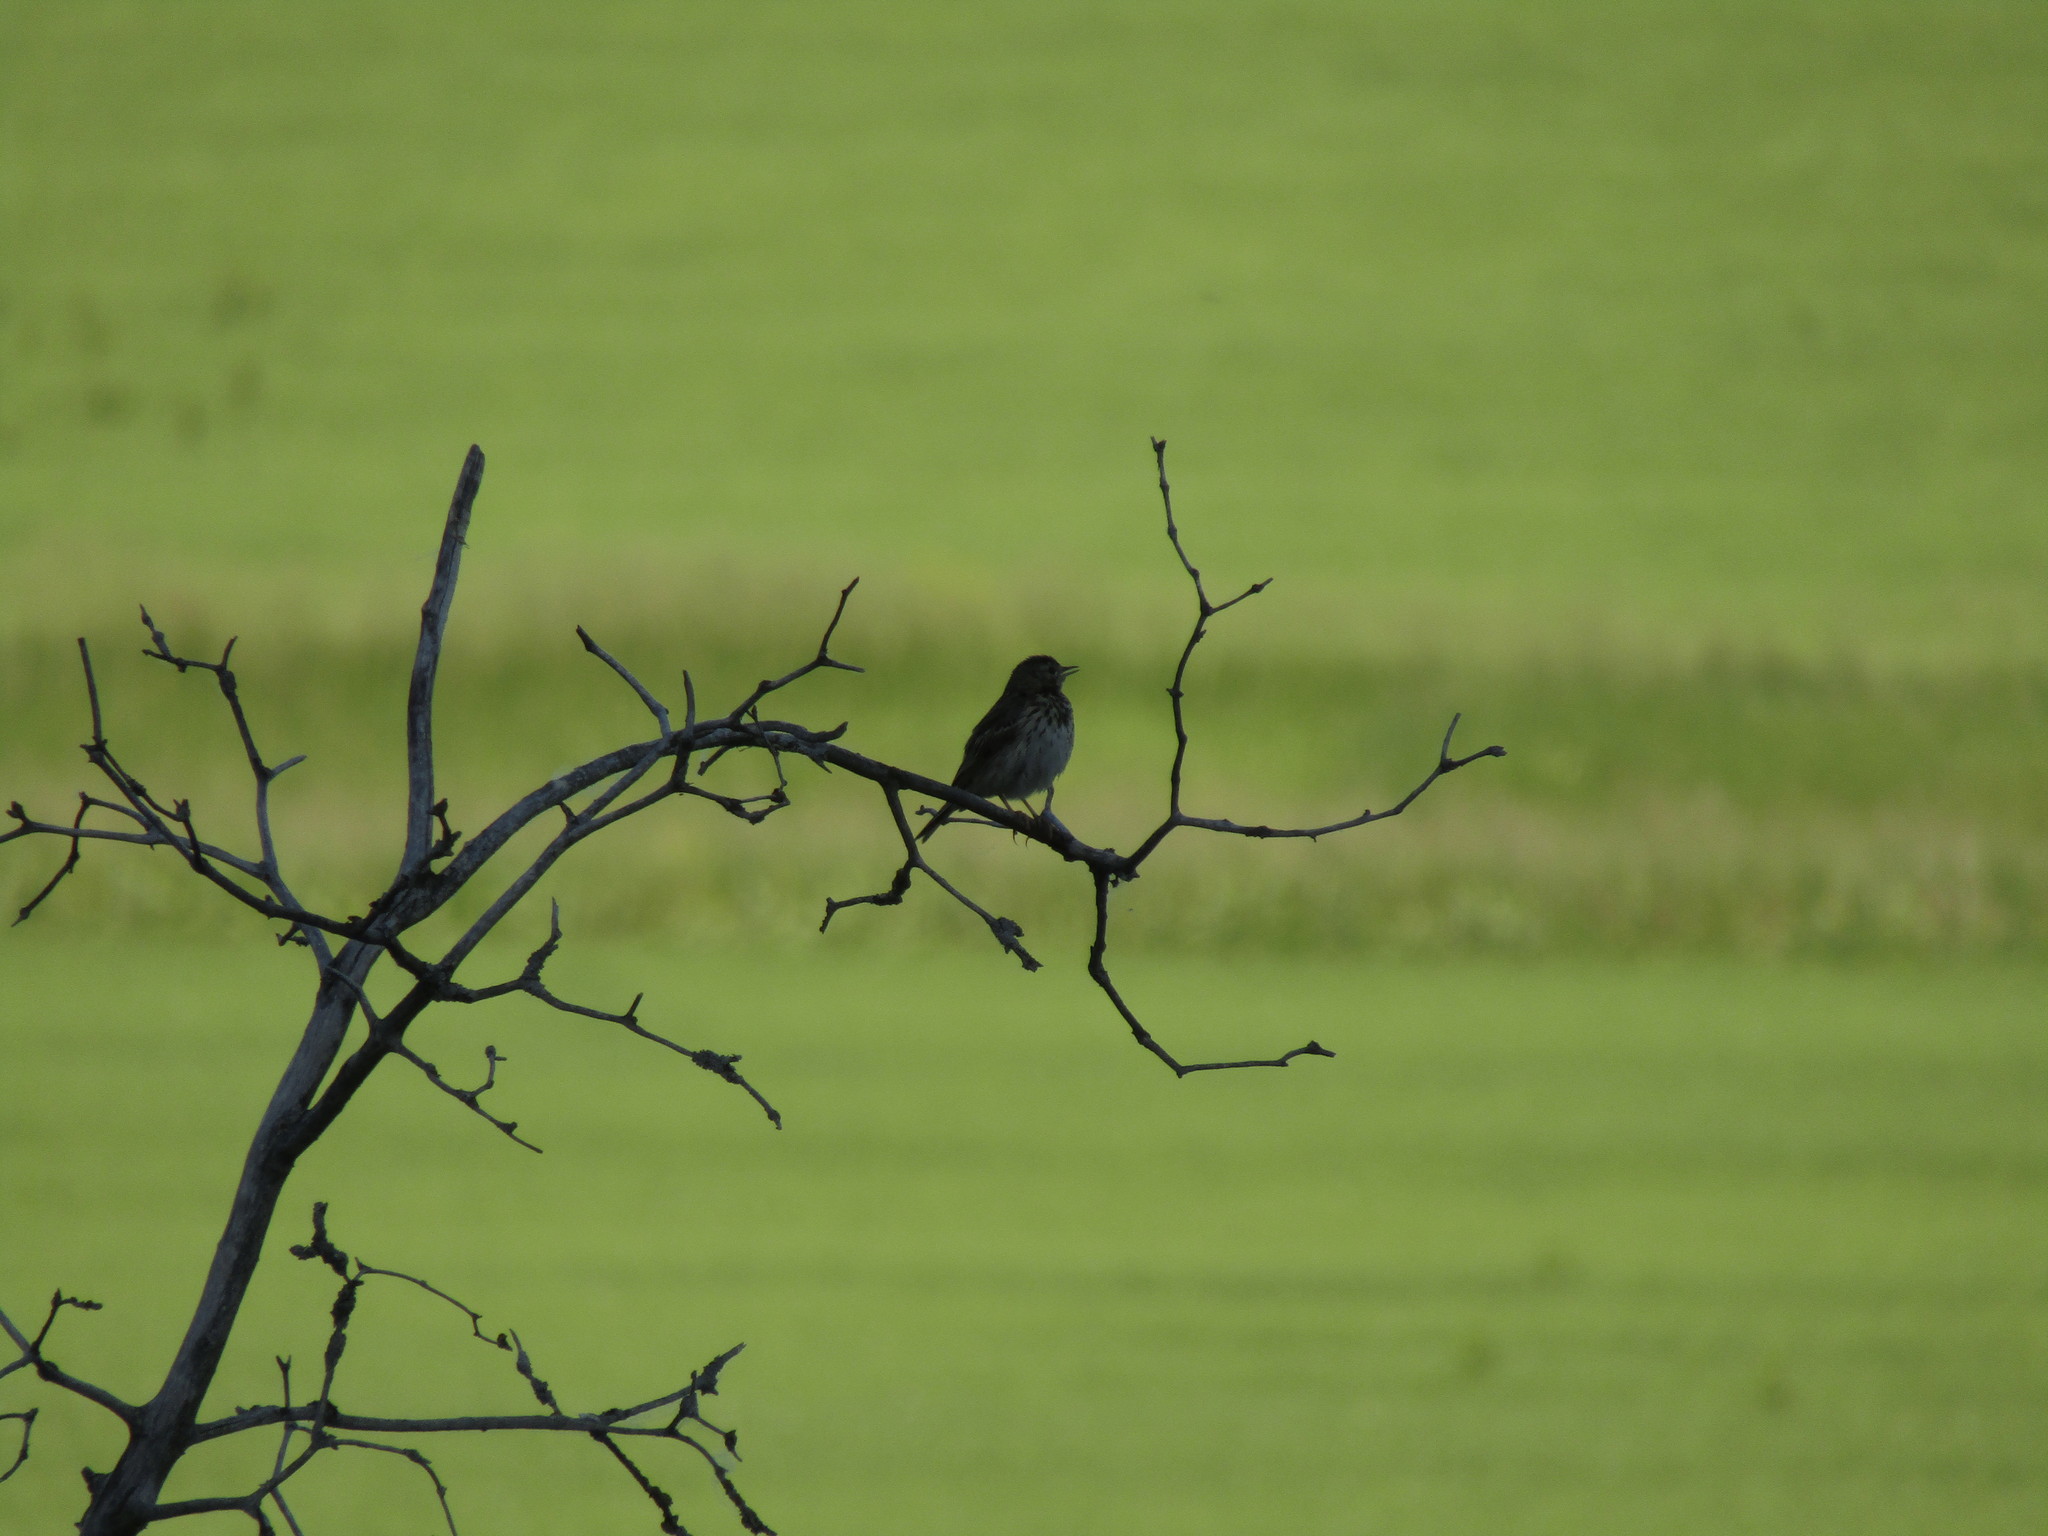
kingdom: Animalia
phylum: Chordata
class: Aves
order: Passeriformes
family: Motacillidae
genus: Anthus
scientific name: Anthus trivialis
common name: Tree pipit
